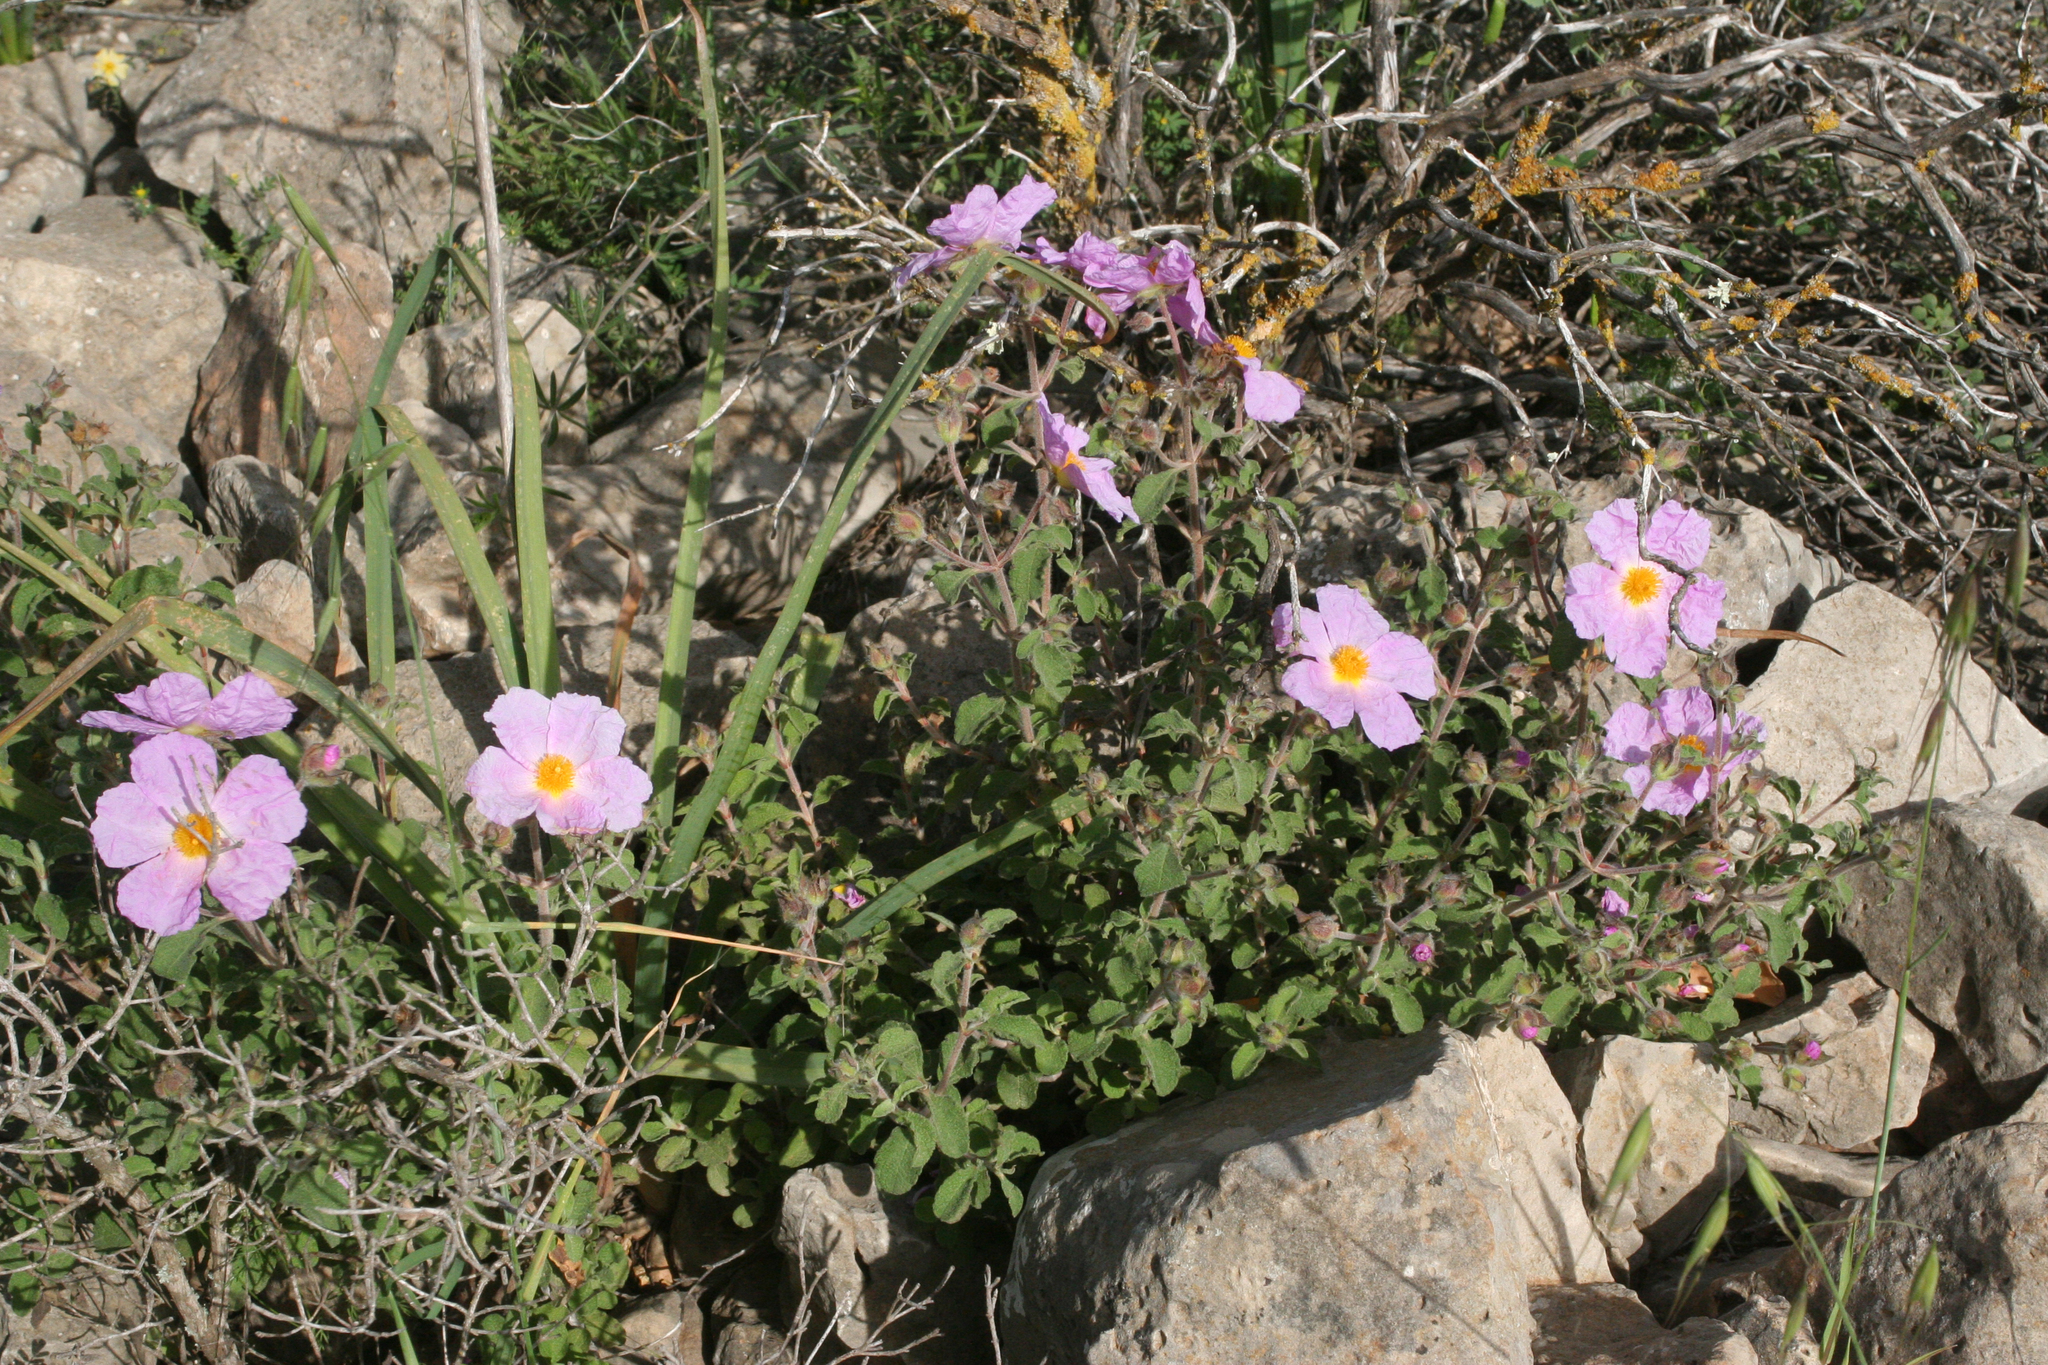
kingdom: Plantae
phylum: Tracheophyta
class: Magnoliopsida
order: Malvales
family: Cistaceae
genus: Cistus
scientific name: Cistus creticus
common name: Cretan rockrose
